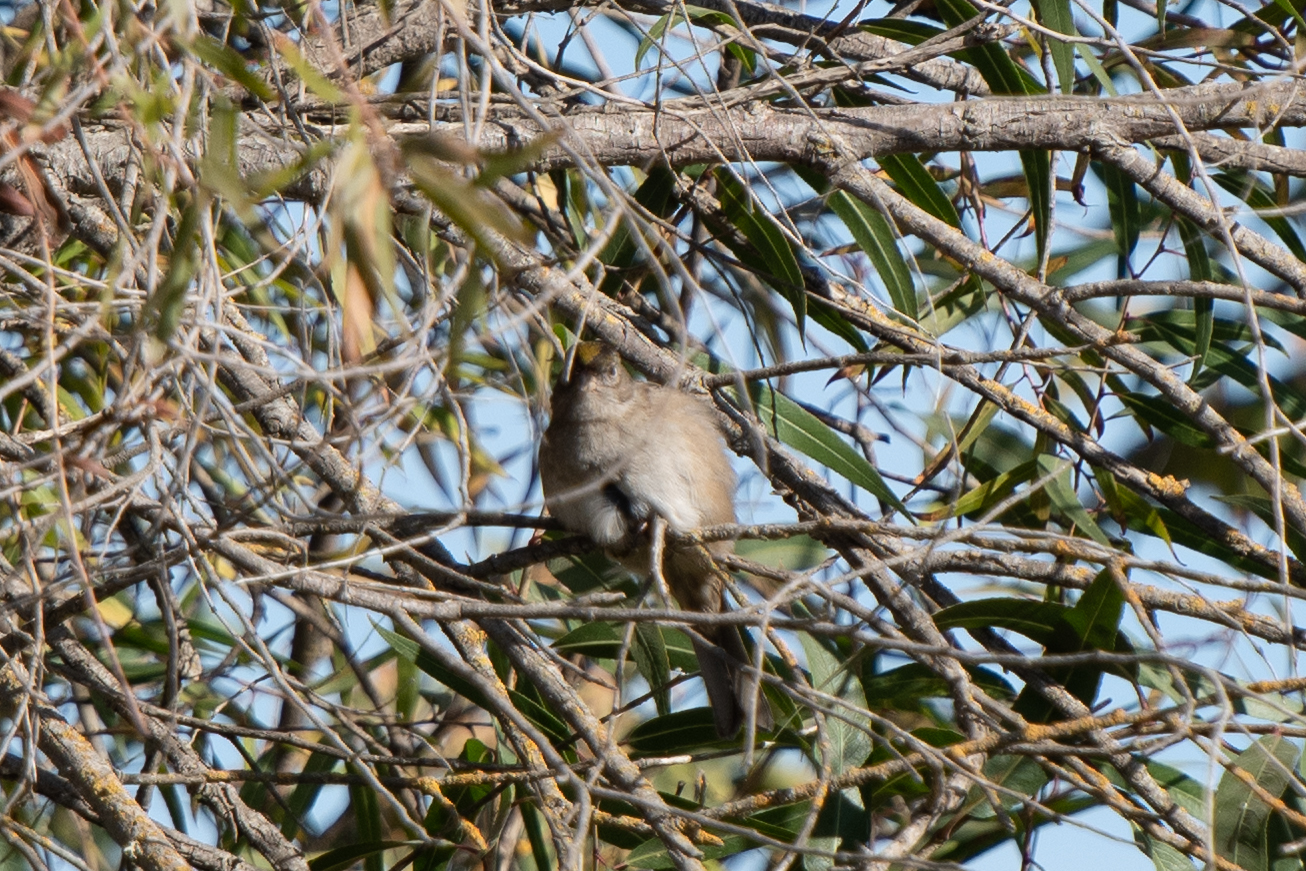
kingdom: Animalia
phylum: Chordata
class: Aves
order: Passeriformes
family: Passerellidae
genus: Zonotrichia
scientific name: Zonotrichia atricapilla
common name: Golden-crowned sparrow
